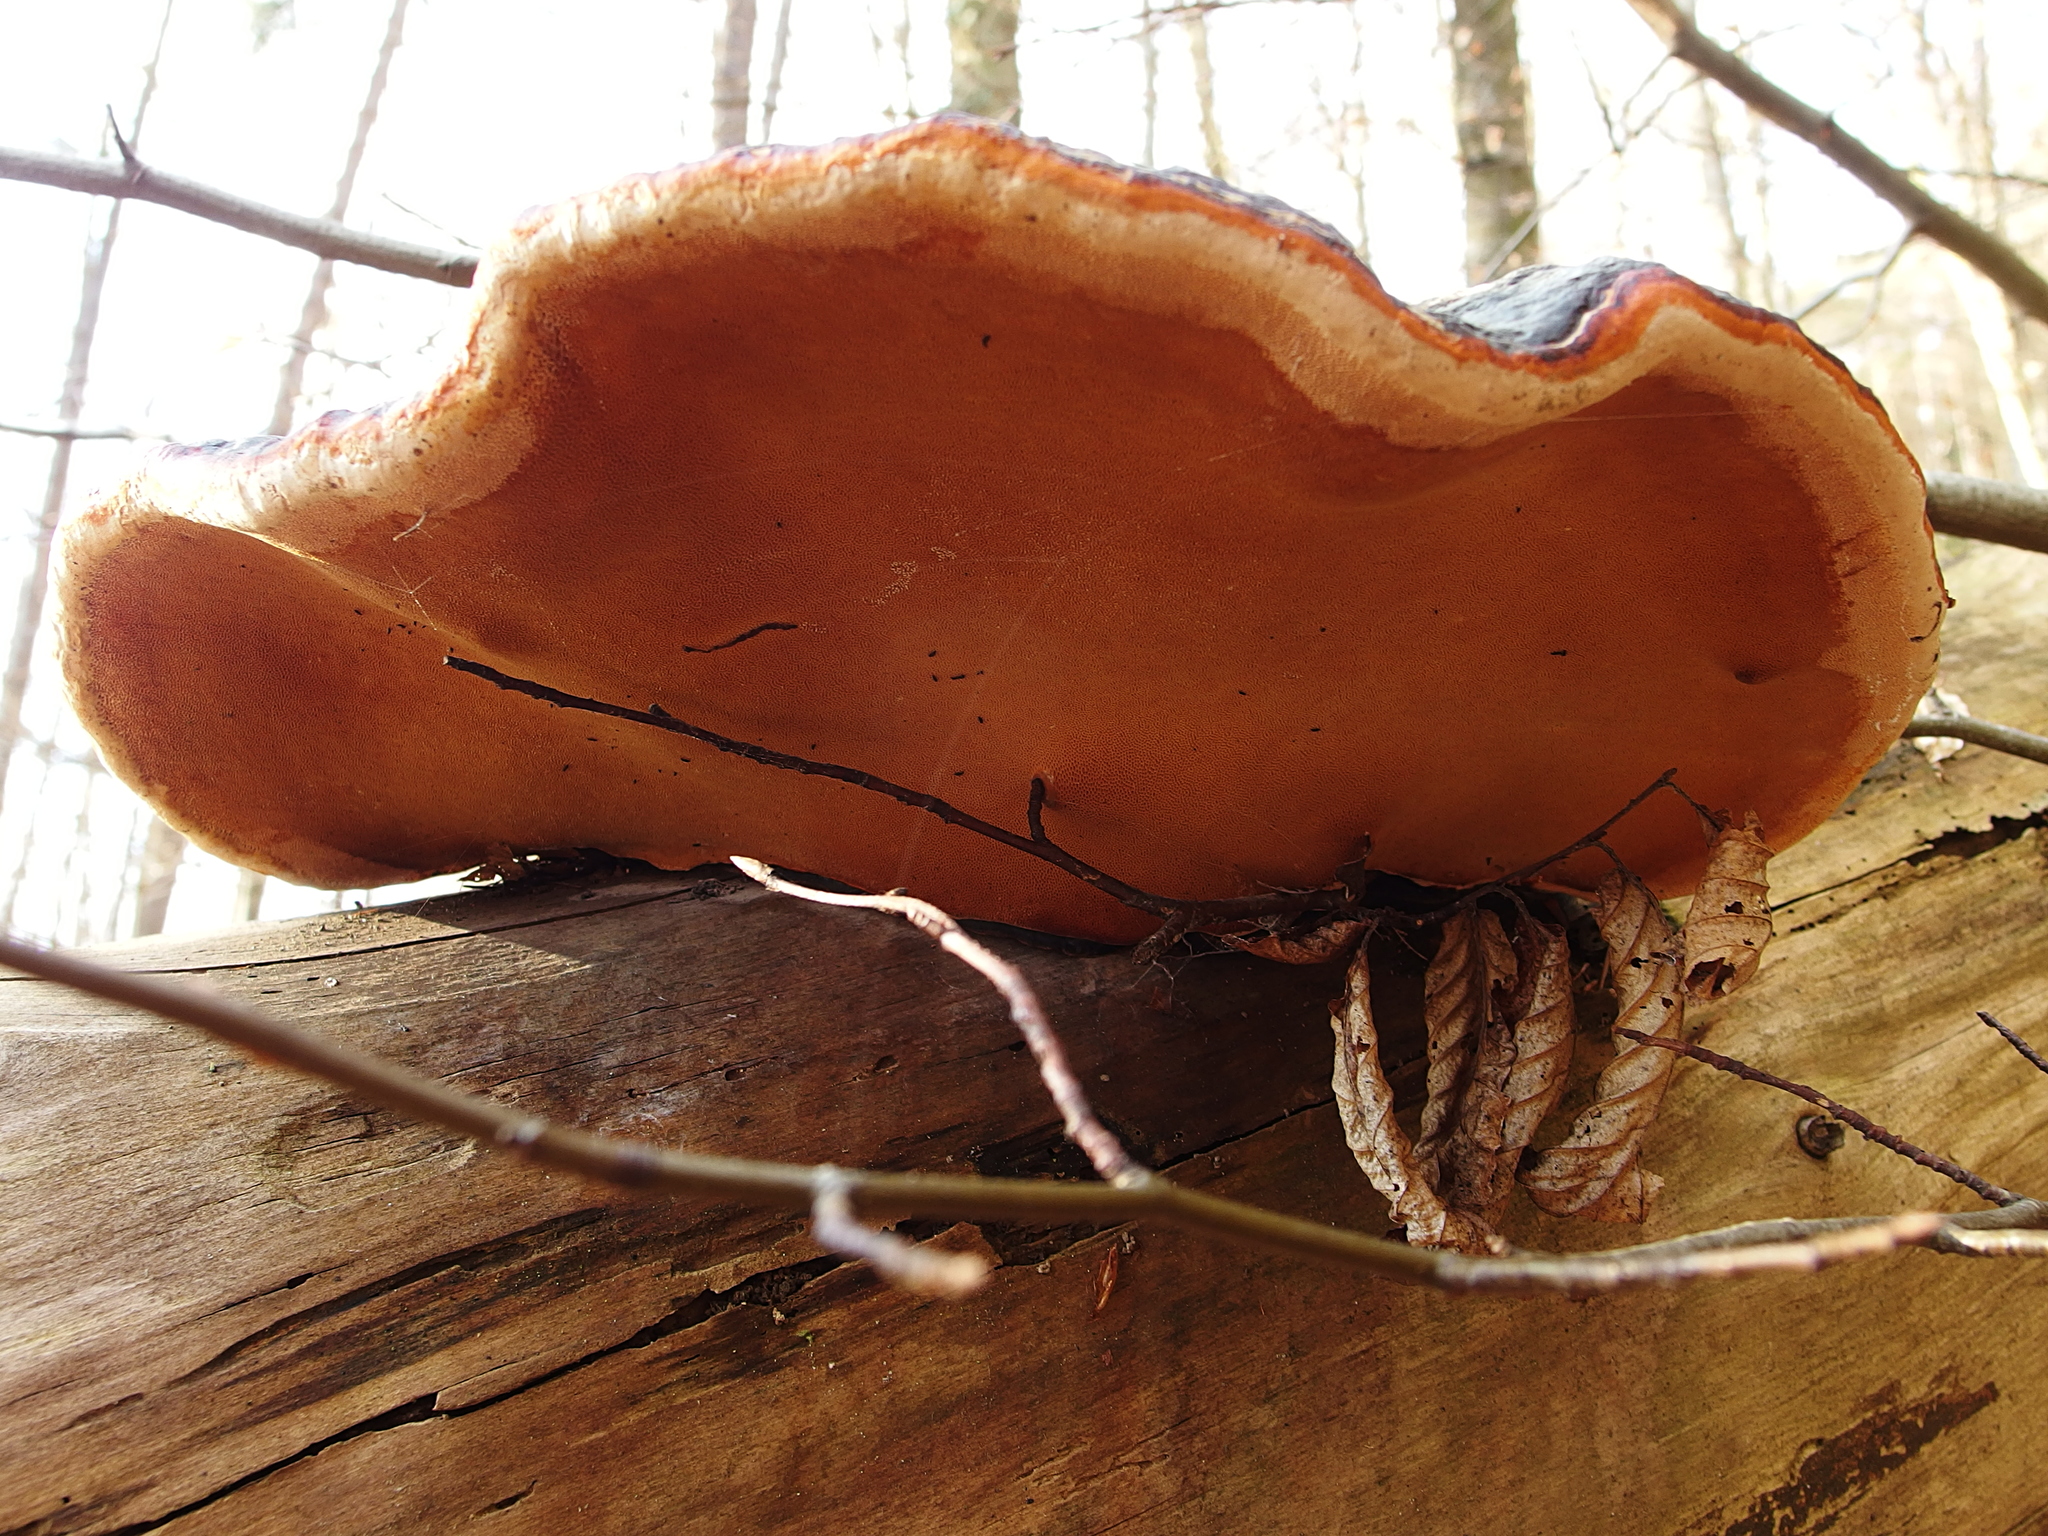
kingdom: Fungi
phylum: Basidiomycota
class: Agaricomycetes
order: Polyporales
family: Fomitopsidaceae
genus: Fomitopsis
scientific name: Fomitopsis pinicola
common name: Red-belted bracket
